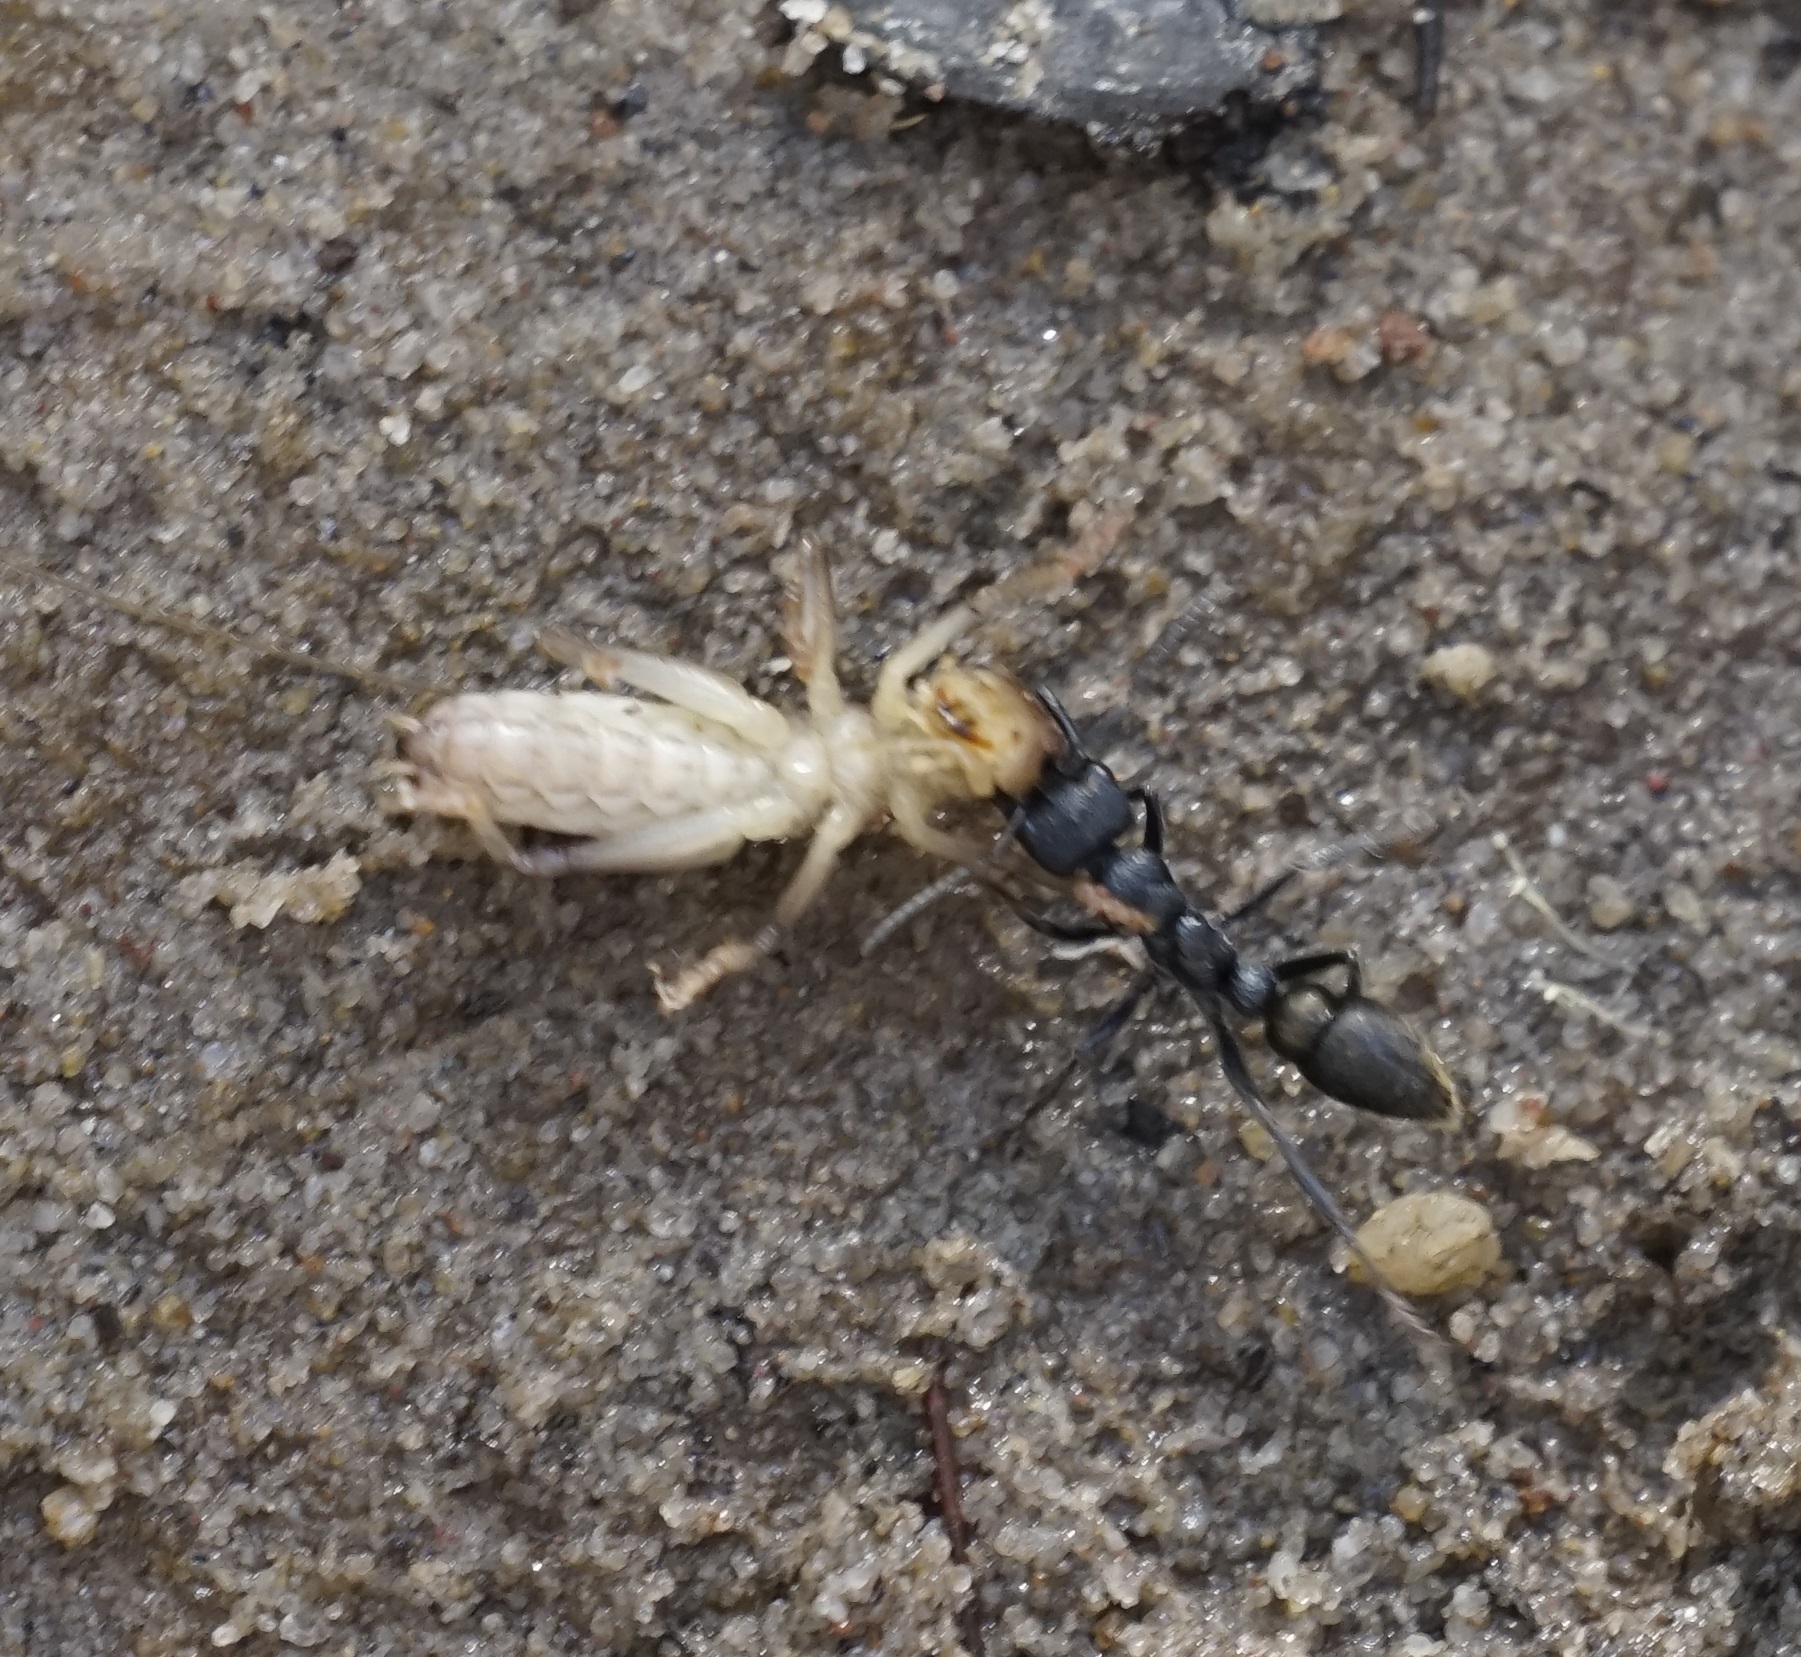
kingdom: Animalia
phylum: Arthropoda
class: Insecta
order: Hymenoptera
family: Formicidae
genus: Myrmecia
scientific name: Myrmecia piliventris
